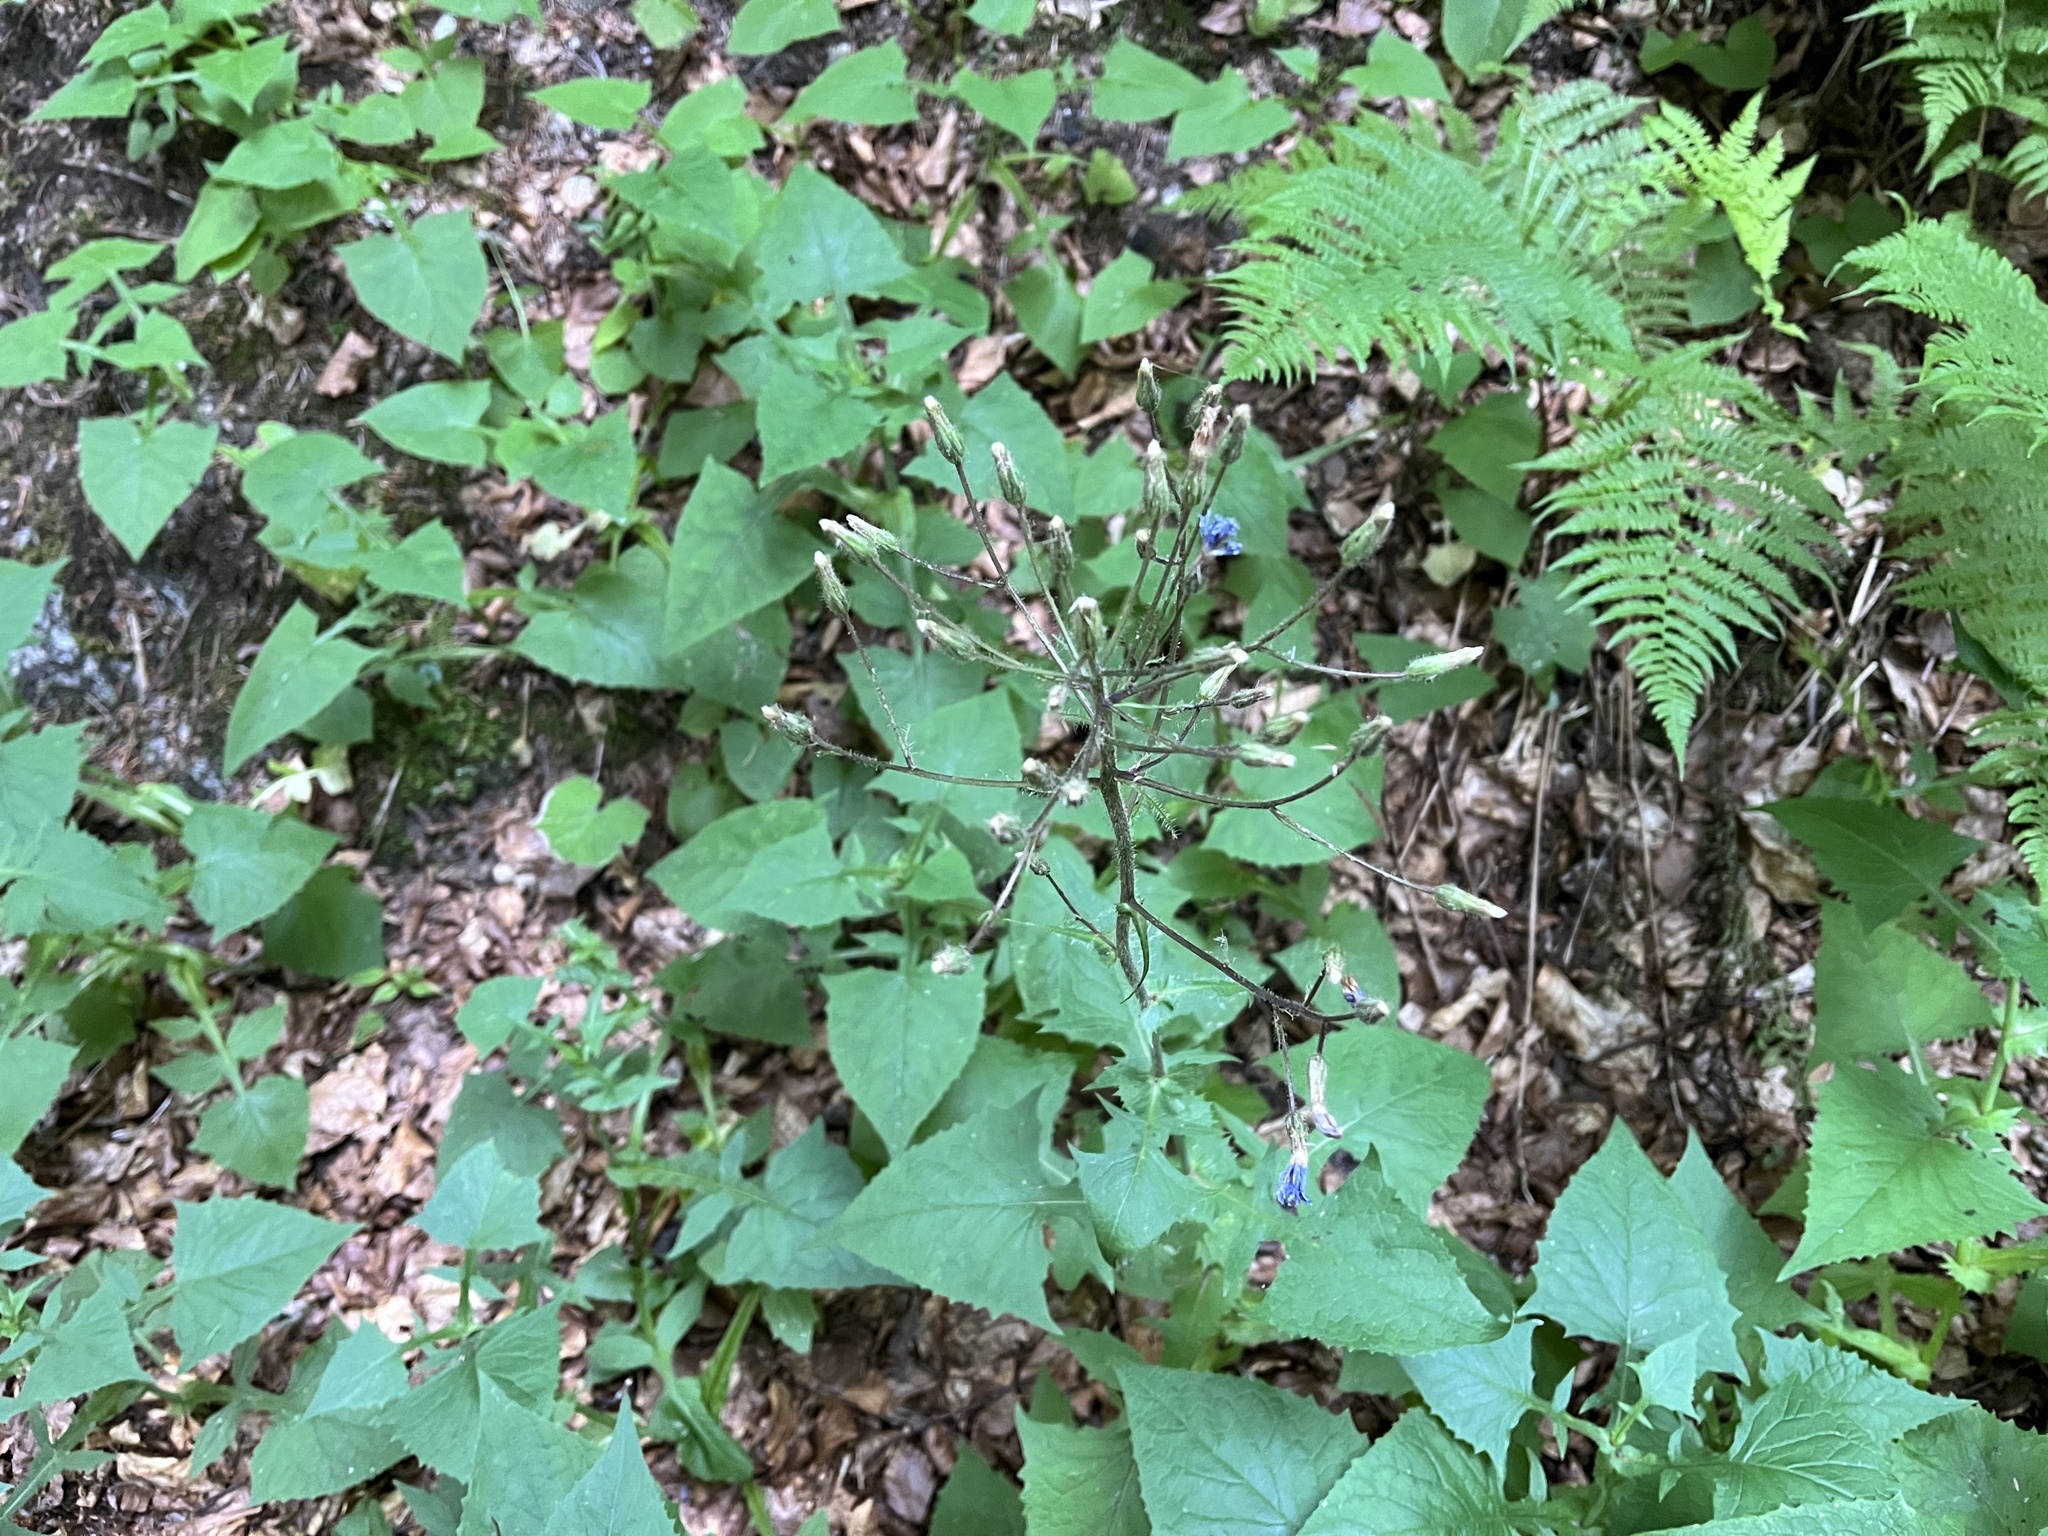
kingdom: Plantae
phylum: Tracheophyta
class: Magnoliopsida
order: Asterales
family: Asteraceae
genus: Cicerbita
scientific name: Cicerbita alpina
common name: Alpine blue-sow-thistle
